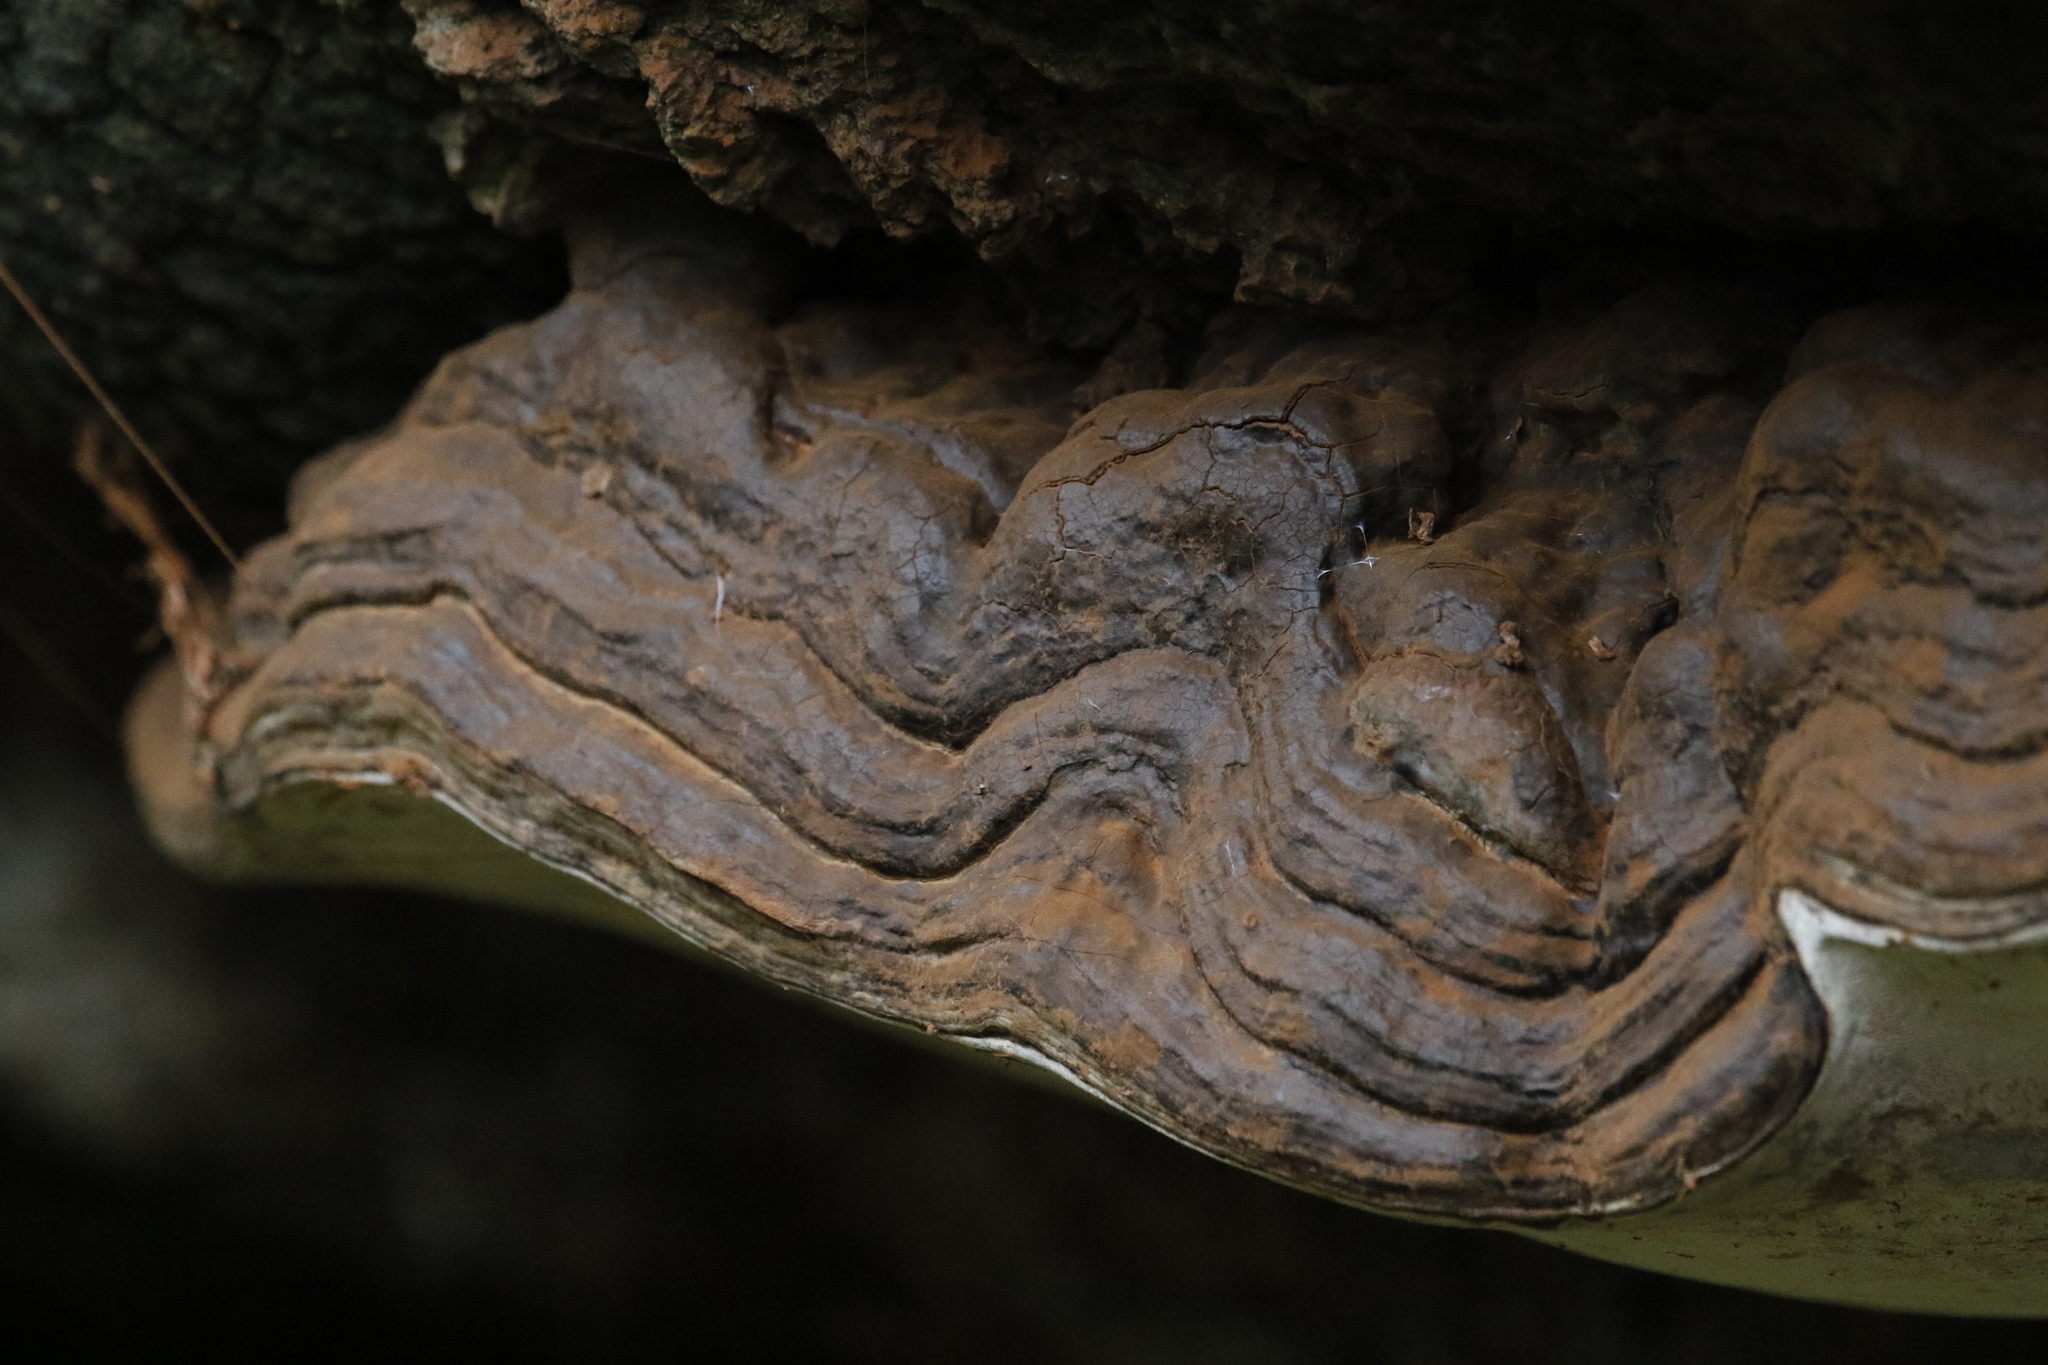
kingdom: Fungi
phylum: Basidiomycota
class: Agaricomycetes
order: Polyporales
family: Polyporaceae
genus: Ganoderma
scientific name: Ganoderma applanatum
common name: Artist's bracket
